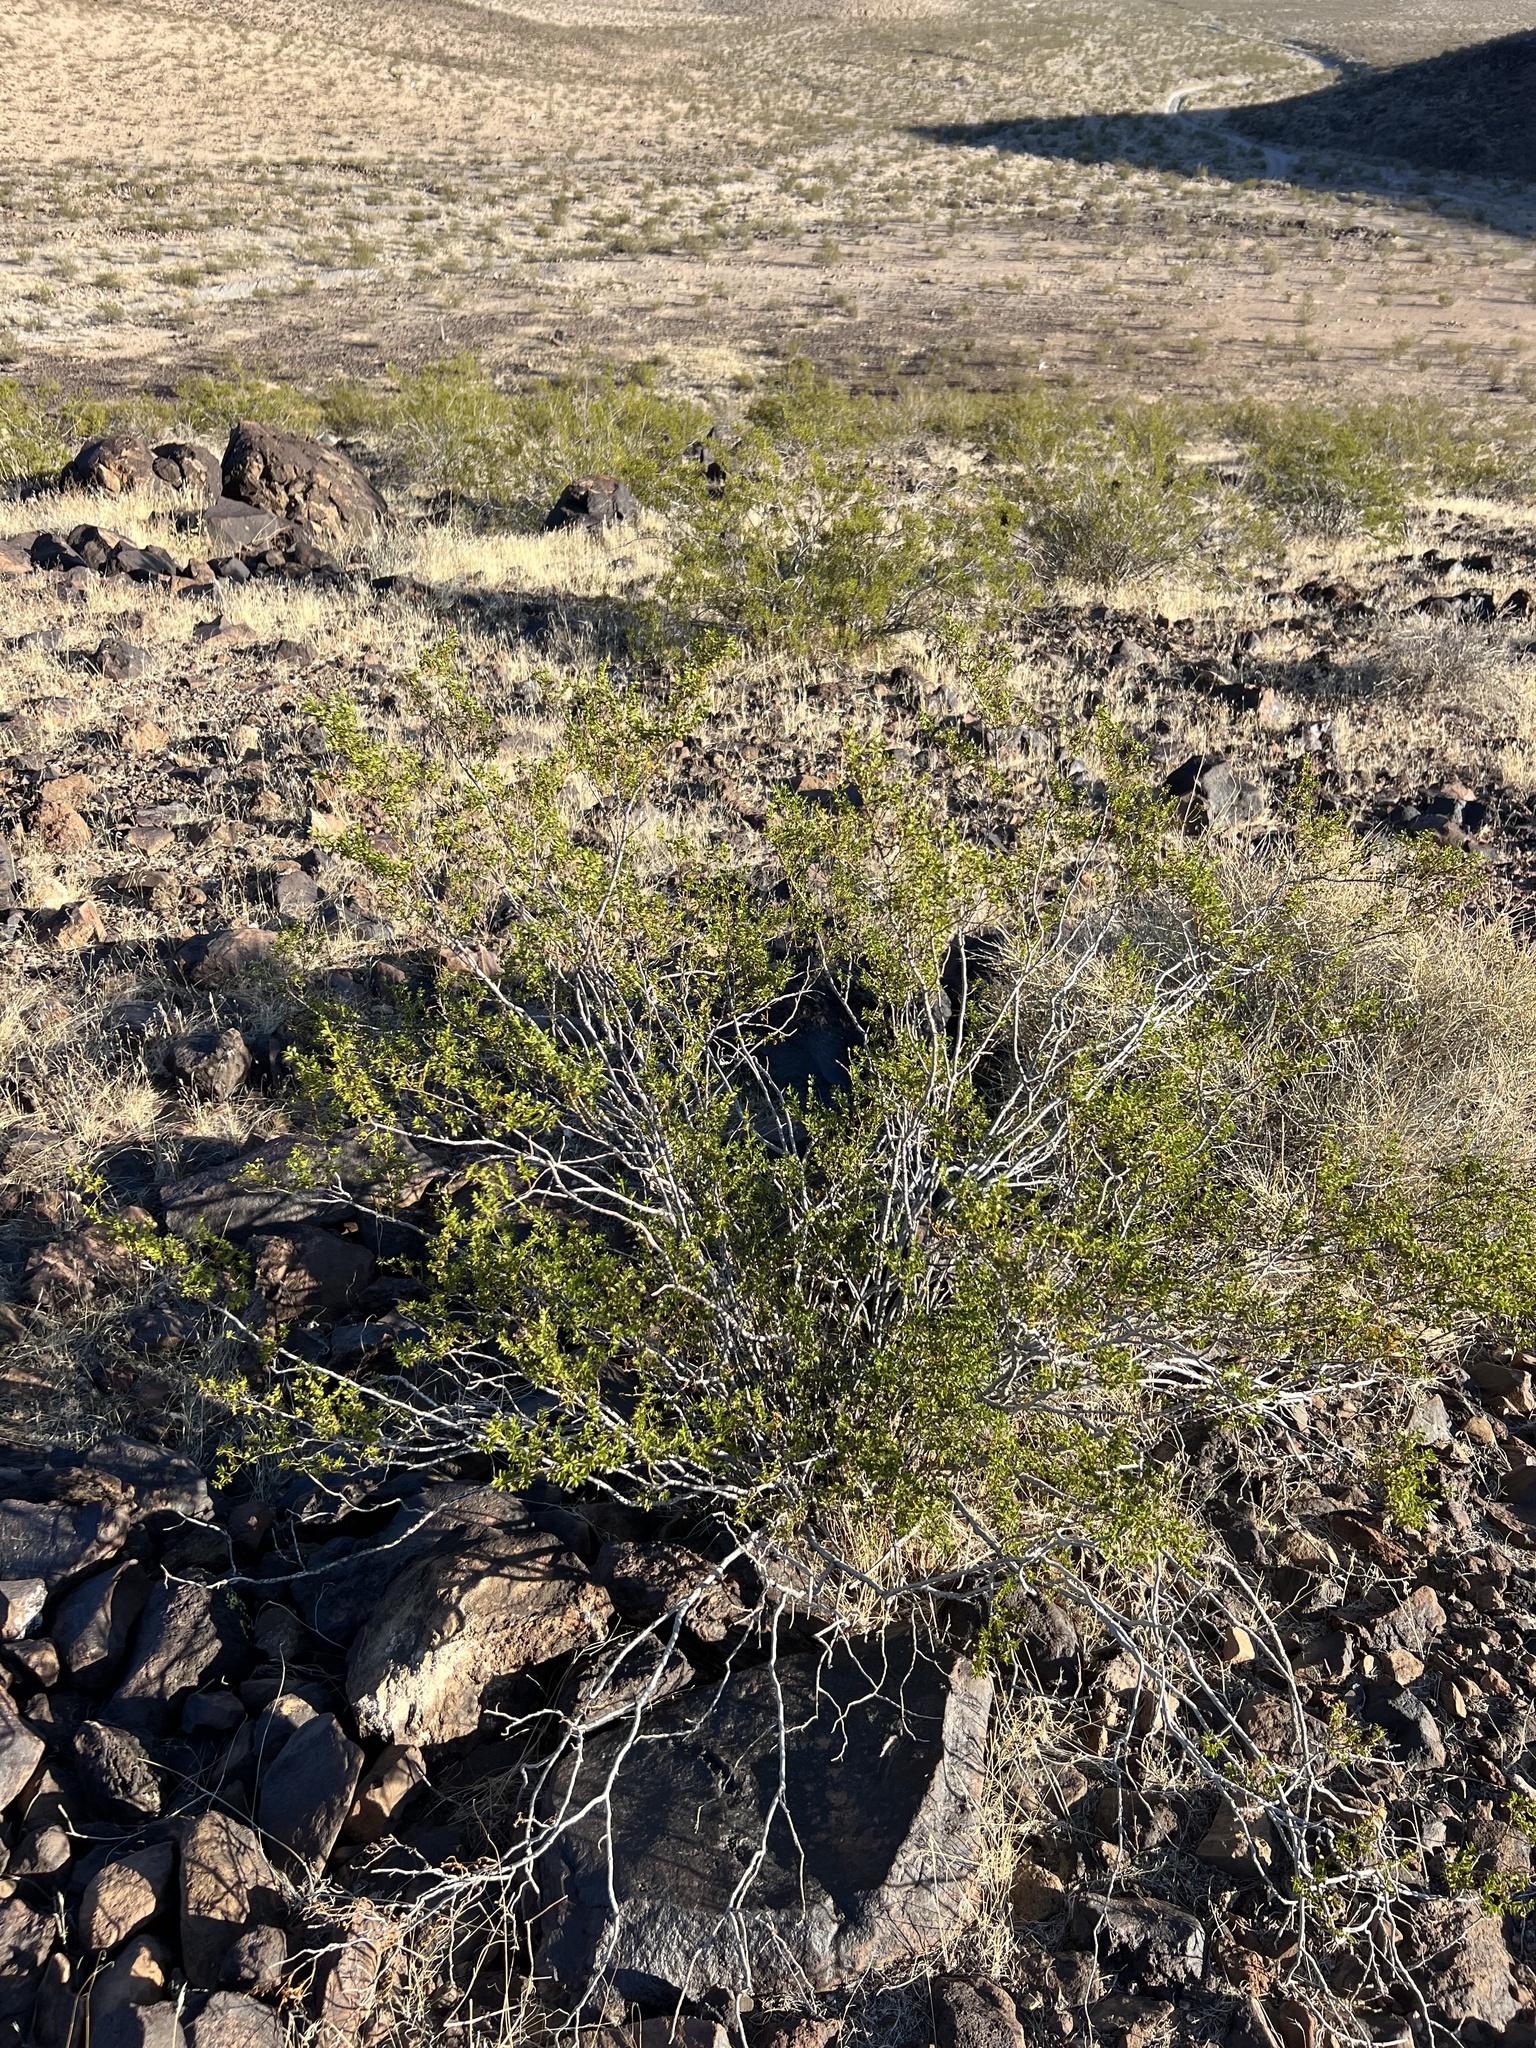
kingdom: Plantae
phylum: Tracheophyta
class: Magnoliopsida
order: Zygophyllales
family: Zygophyllaceae
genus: Larrea
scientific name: Larrea tridentata
